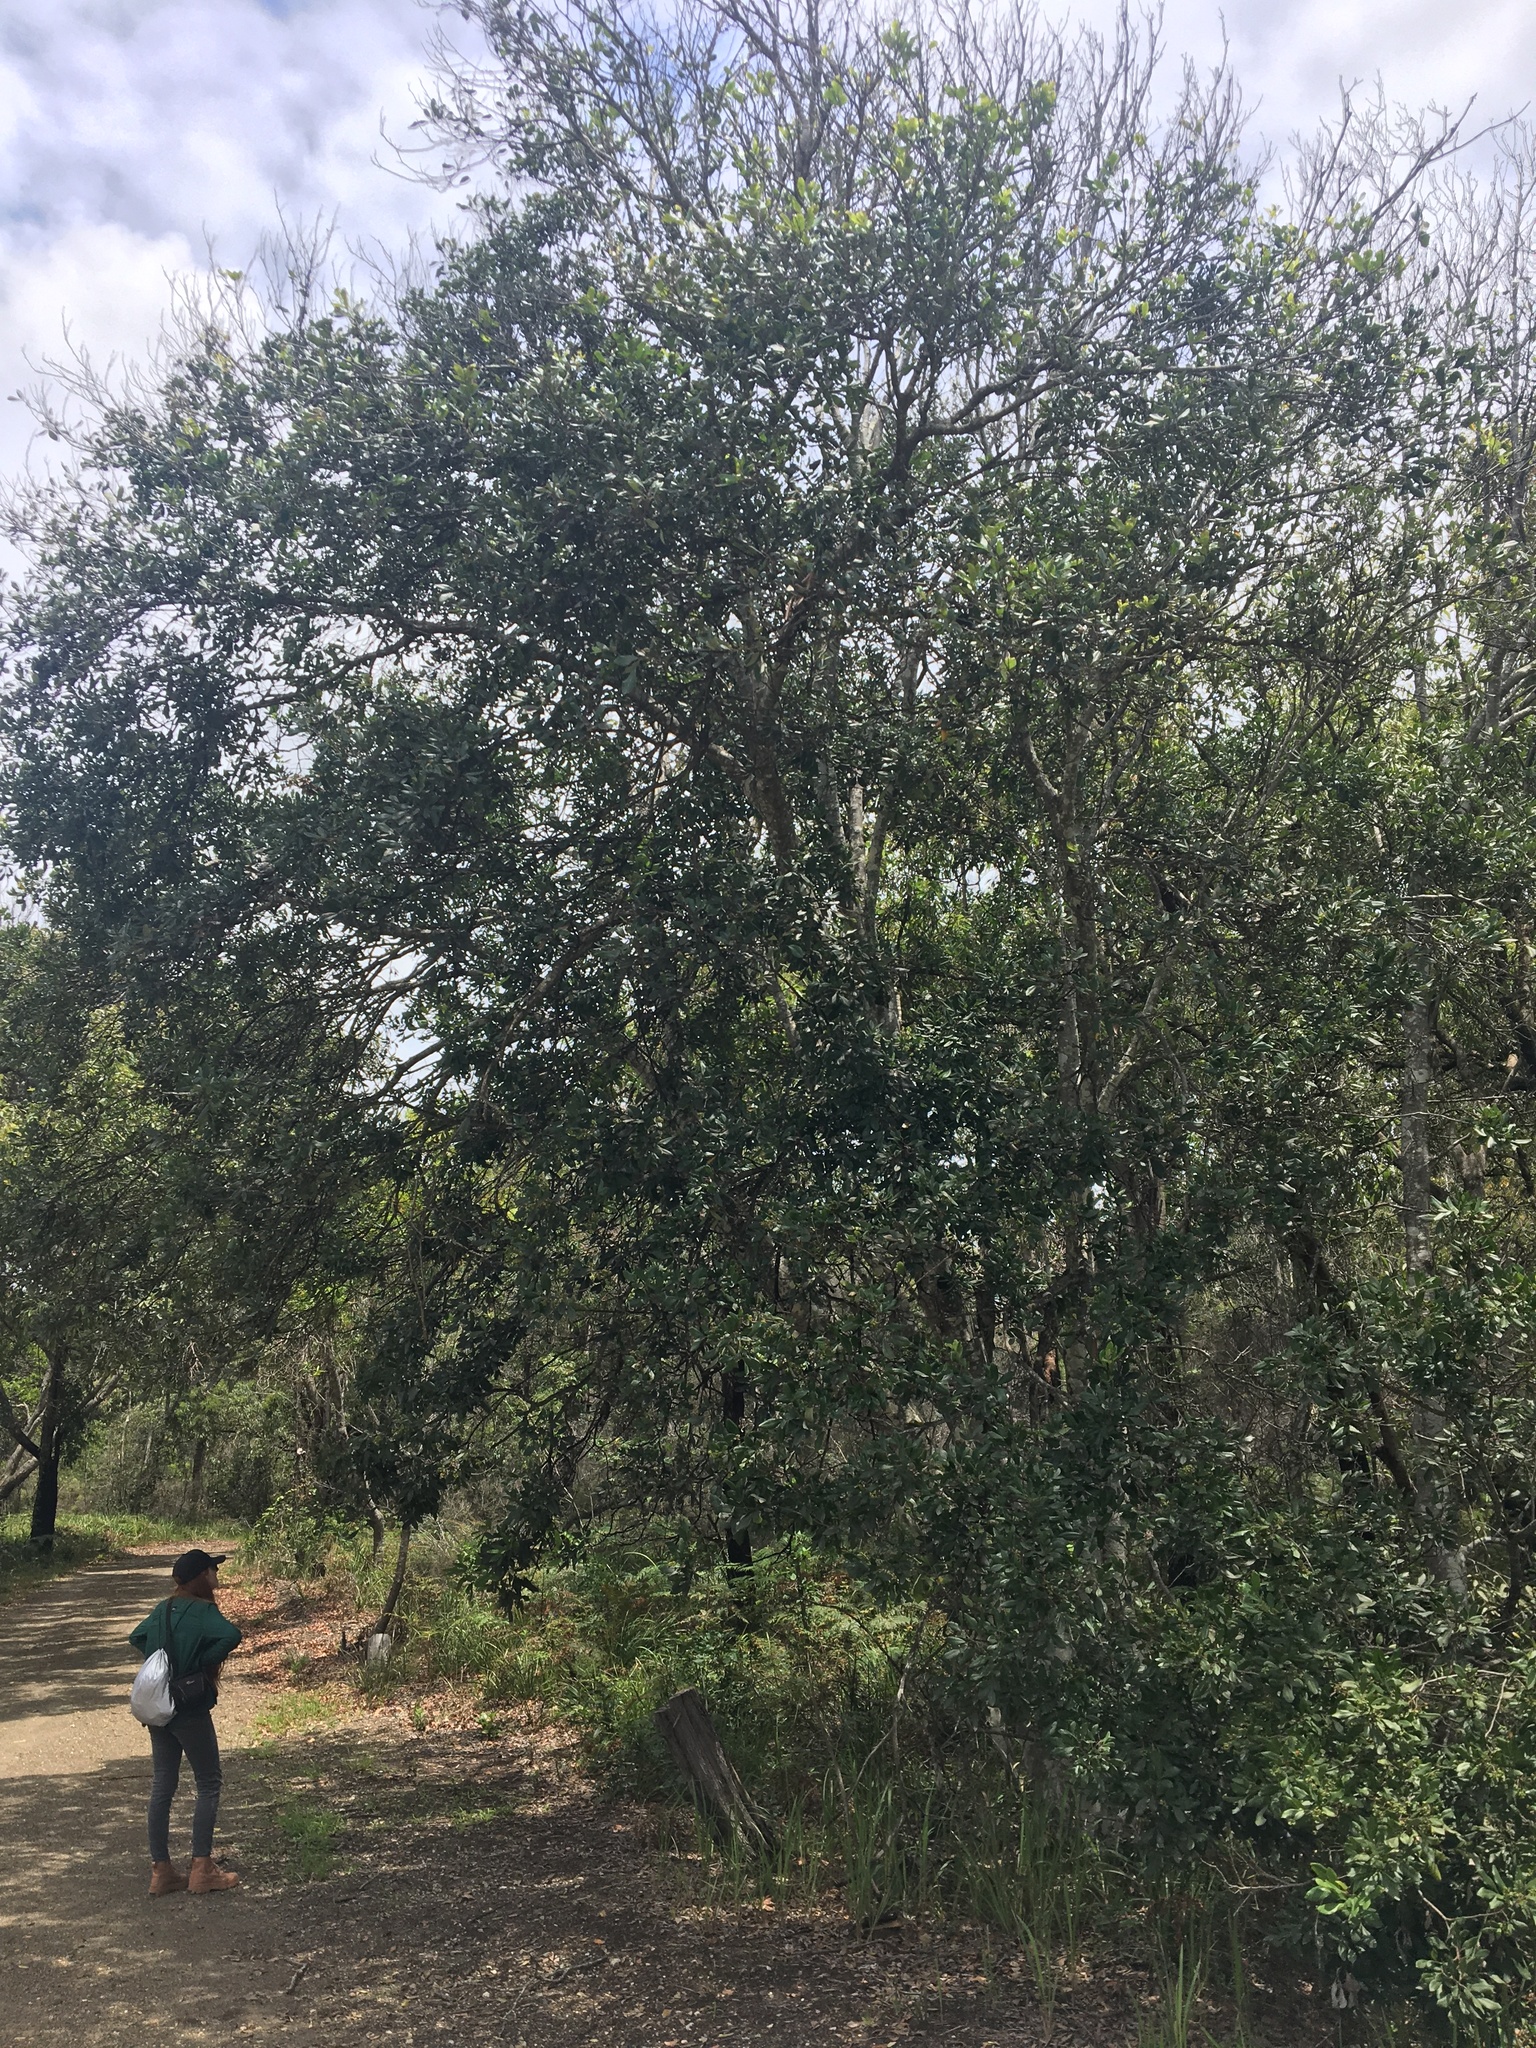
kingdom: Plantae
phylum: Tracheophyta
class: Magnoliopsida
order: Sapindales
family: Sapindaceae
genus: Guioa
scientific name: Guioa semiglauca
